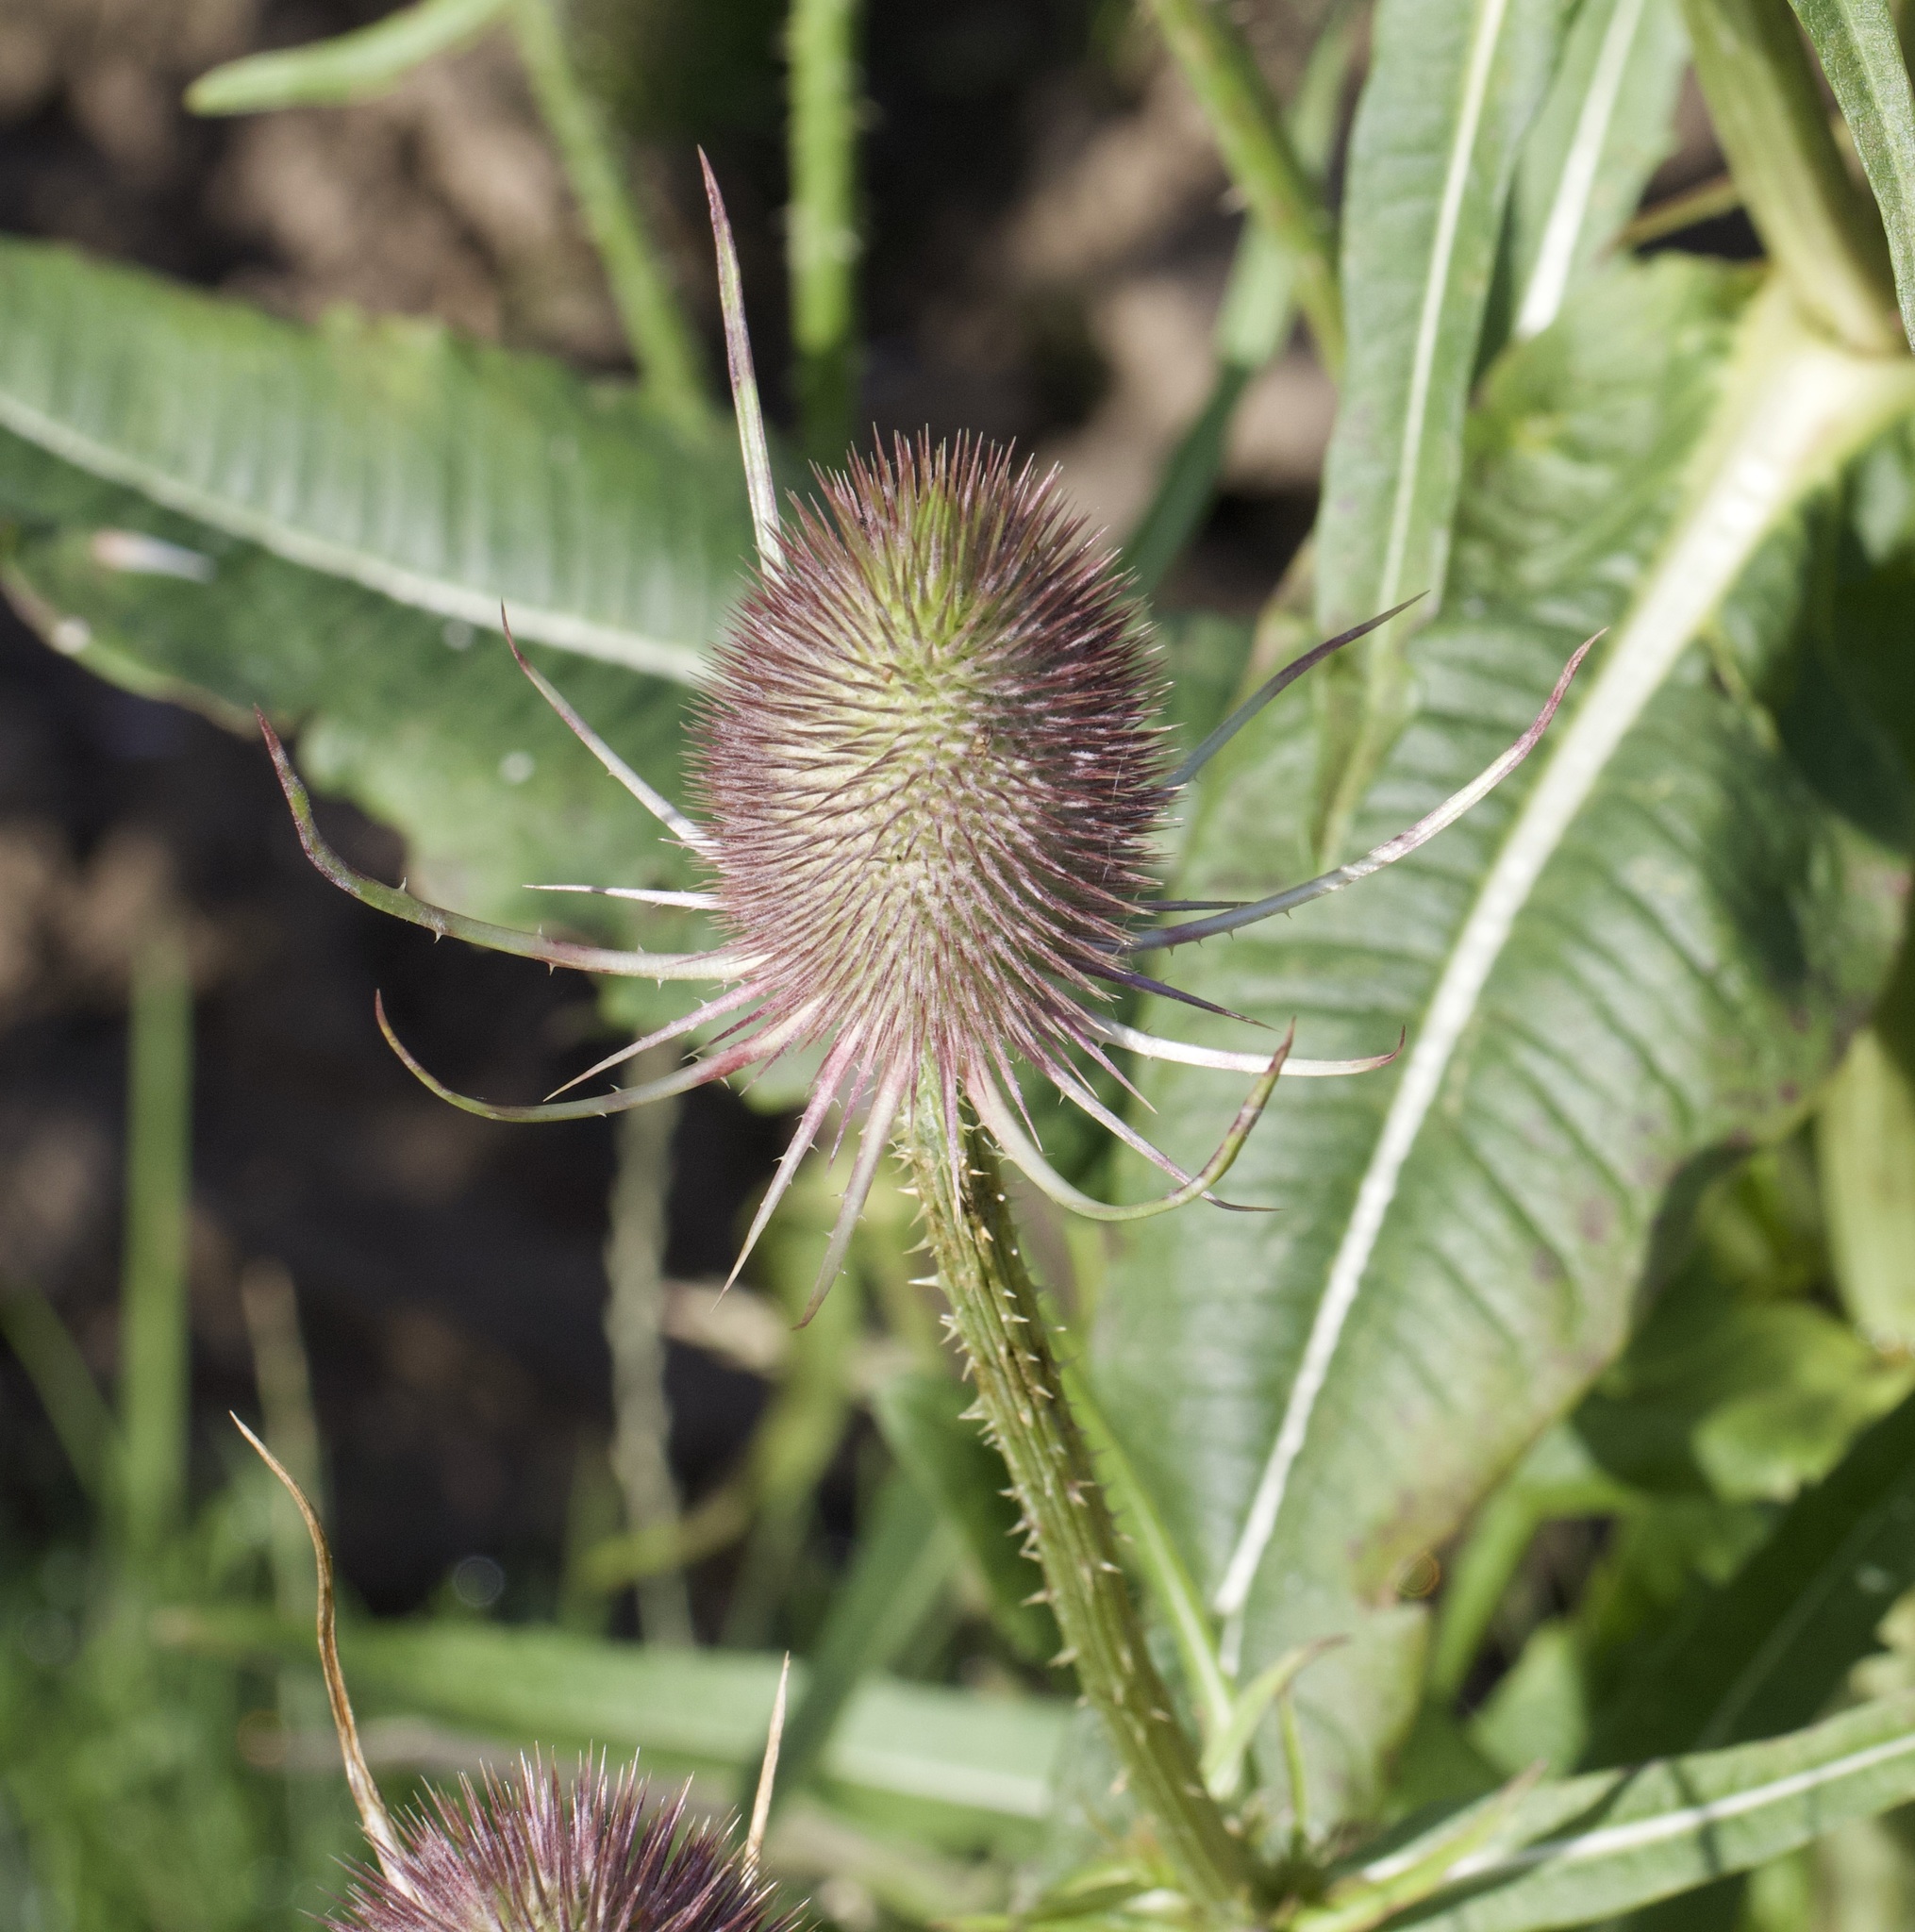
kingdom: Plantae
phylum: Tracheophyta
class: Magnoliopsida
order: Dipsacales
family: Caprifoliaceae
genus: Dipsacus
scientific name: Dipsacus fullonum
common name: Teasel
